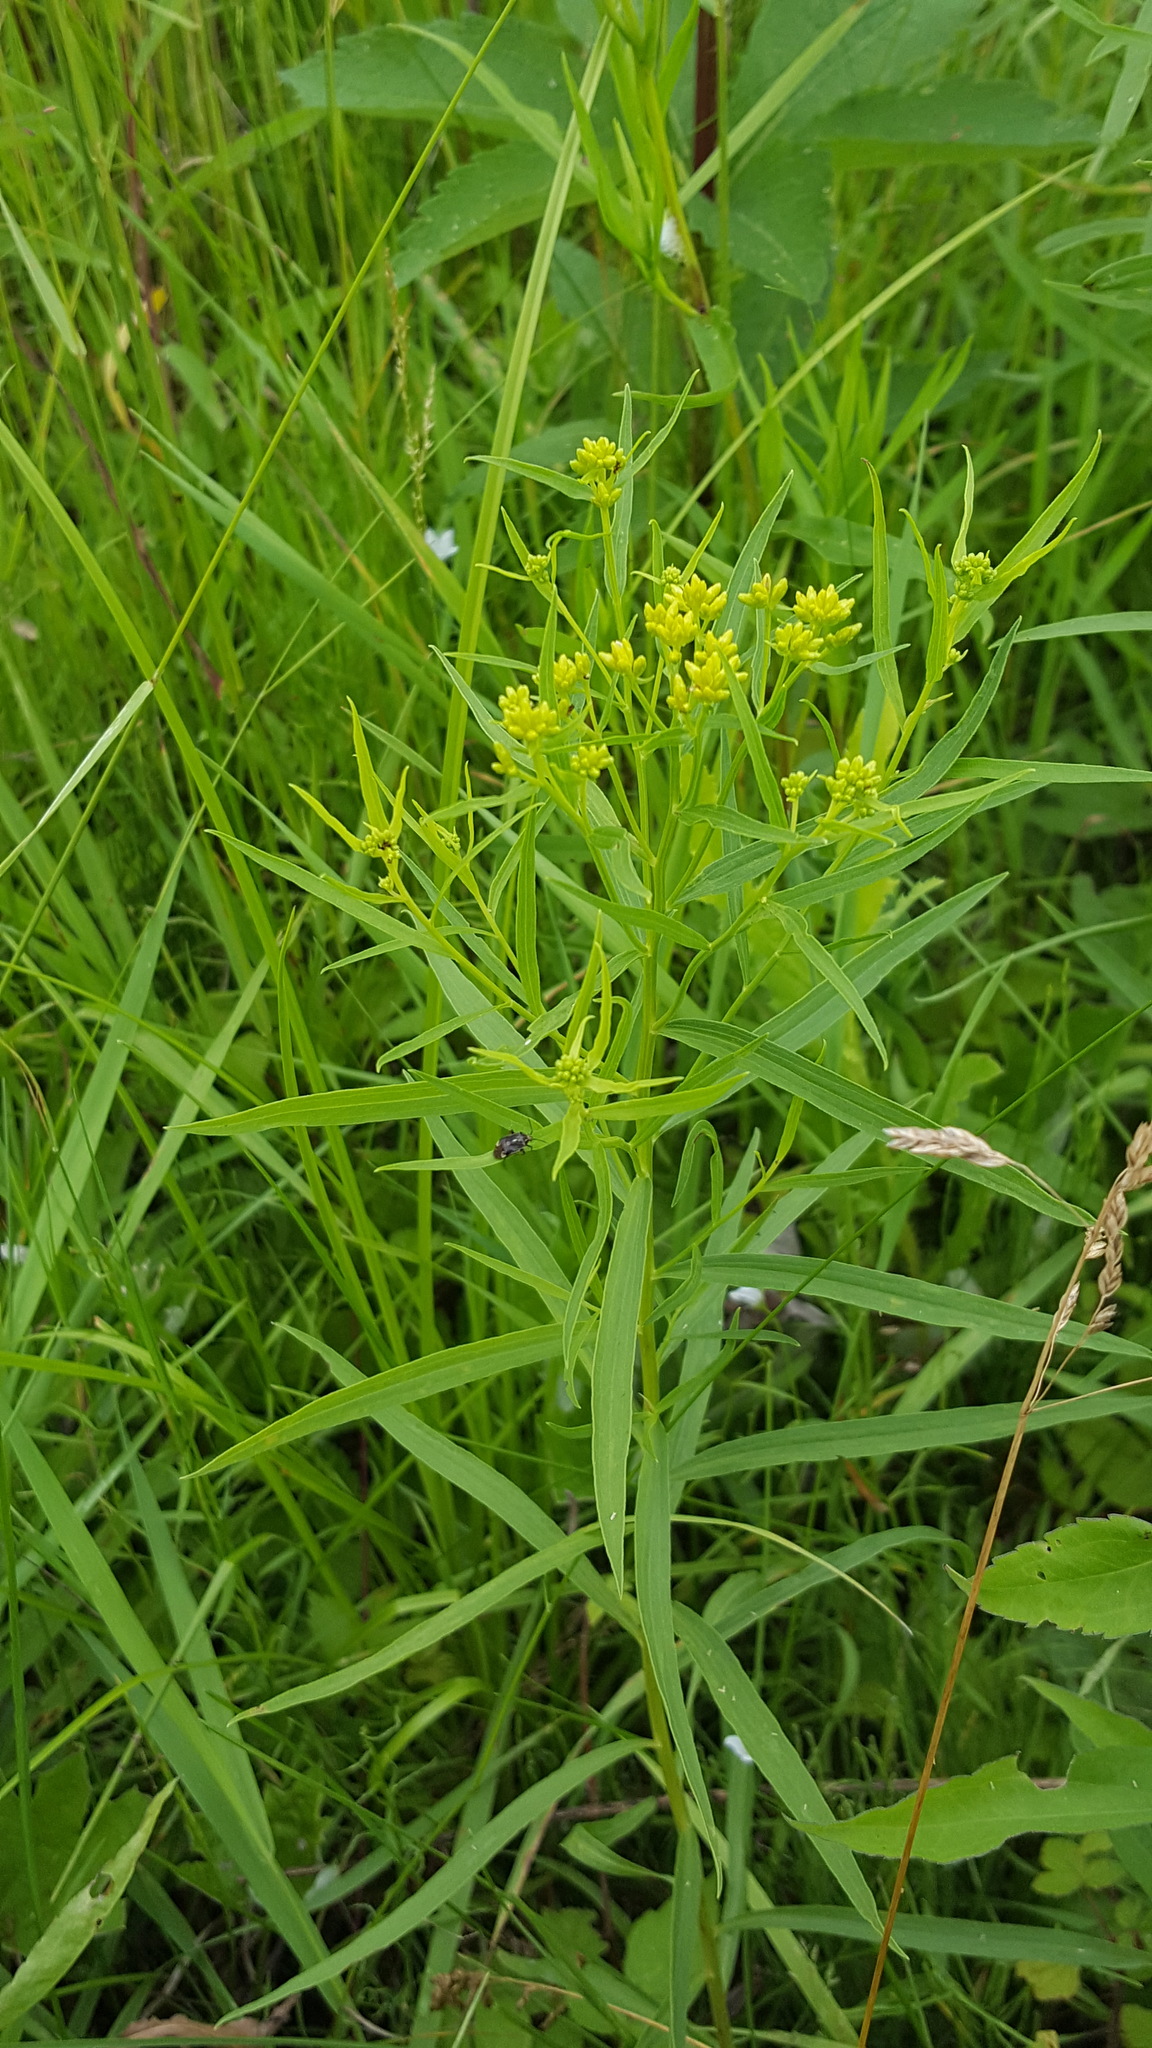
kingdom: Plantae
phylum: Tracheophyta
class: Magnoliopsida
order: Asterales
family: Asteraceae
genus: Euthamia
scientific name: Euthamia graminifolia
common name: Common goldentop
